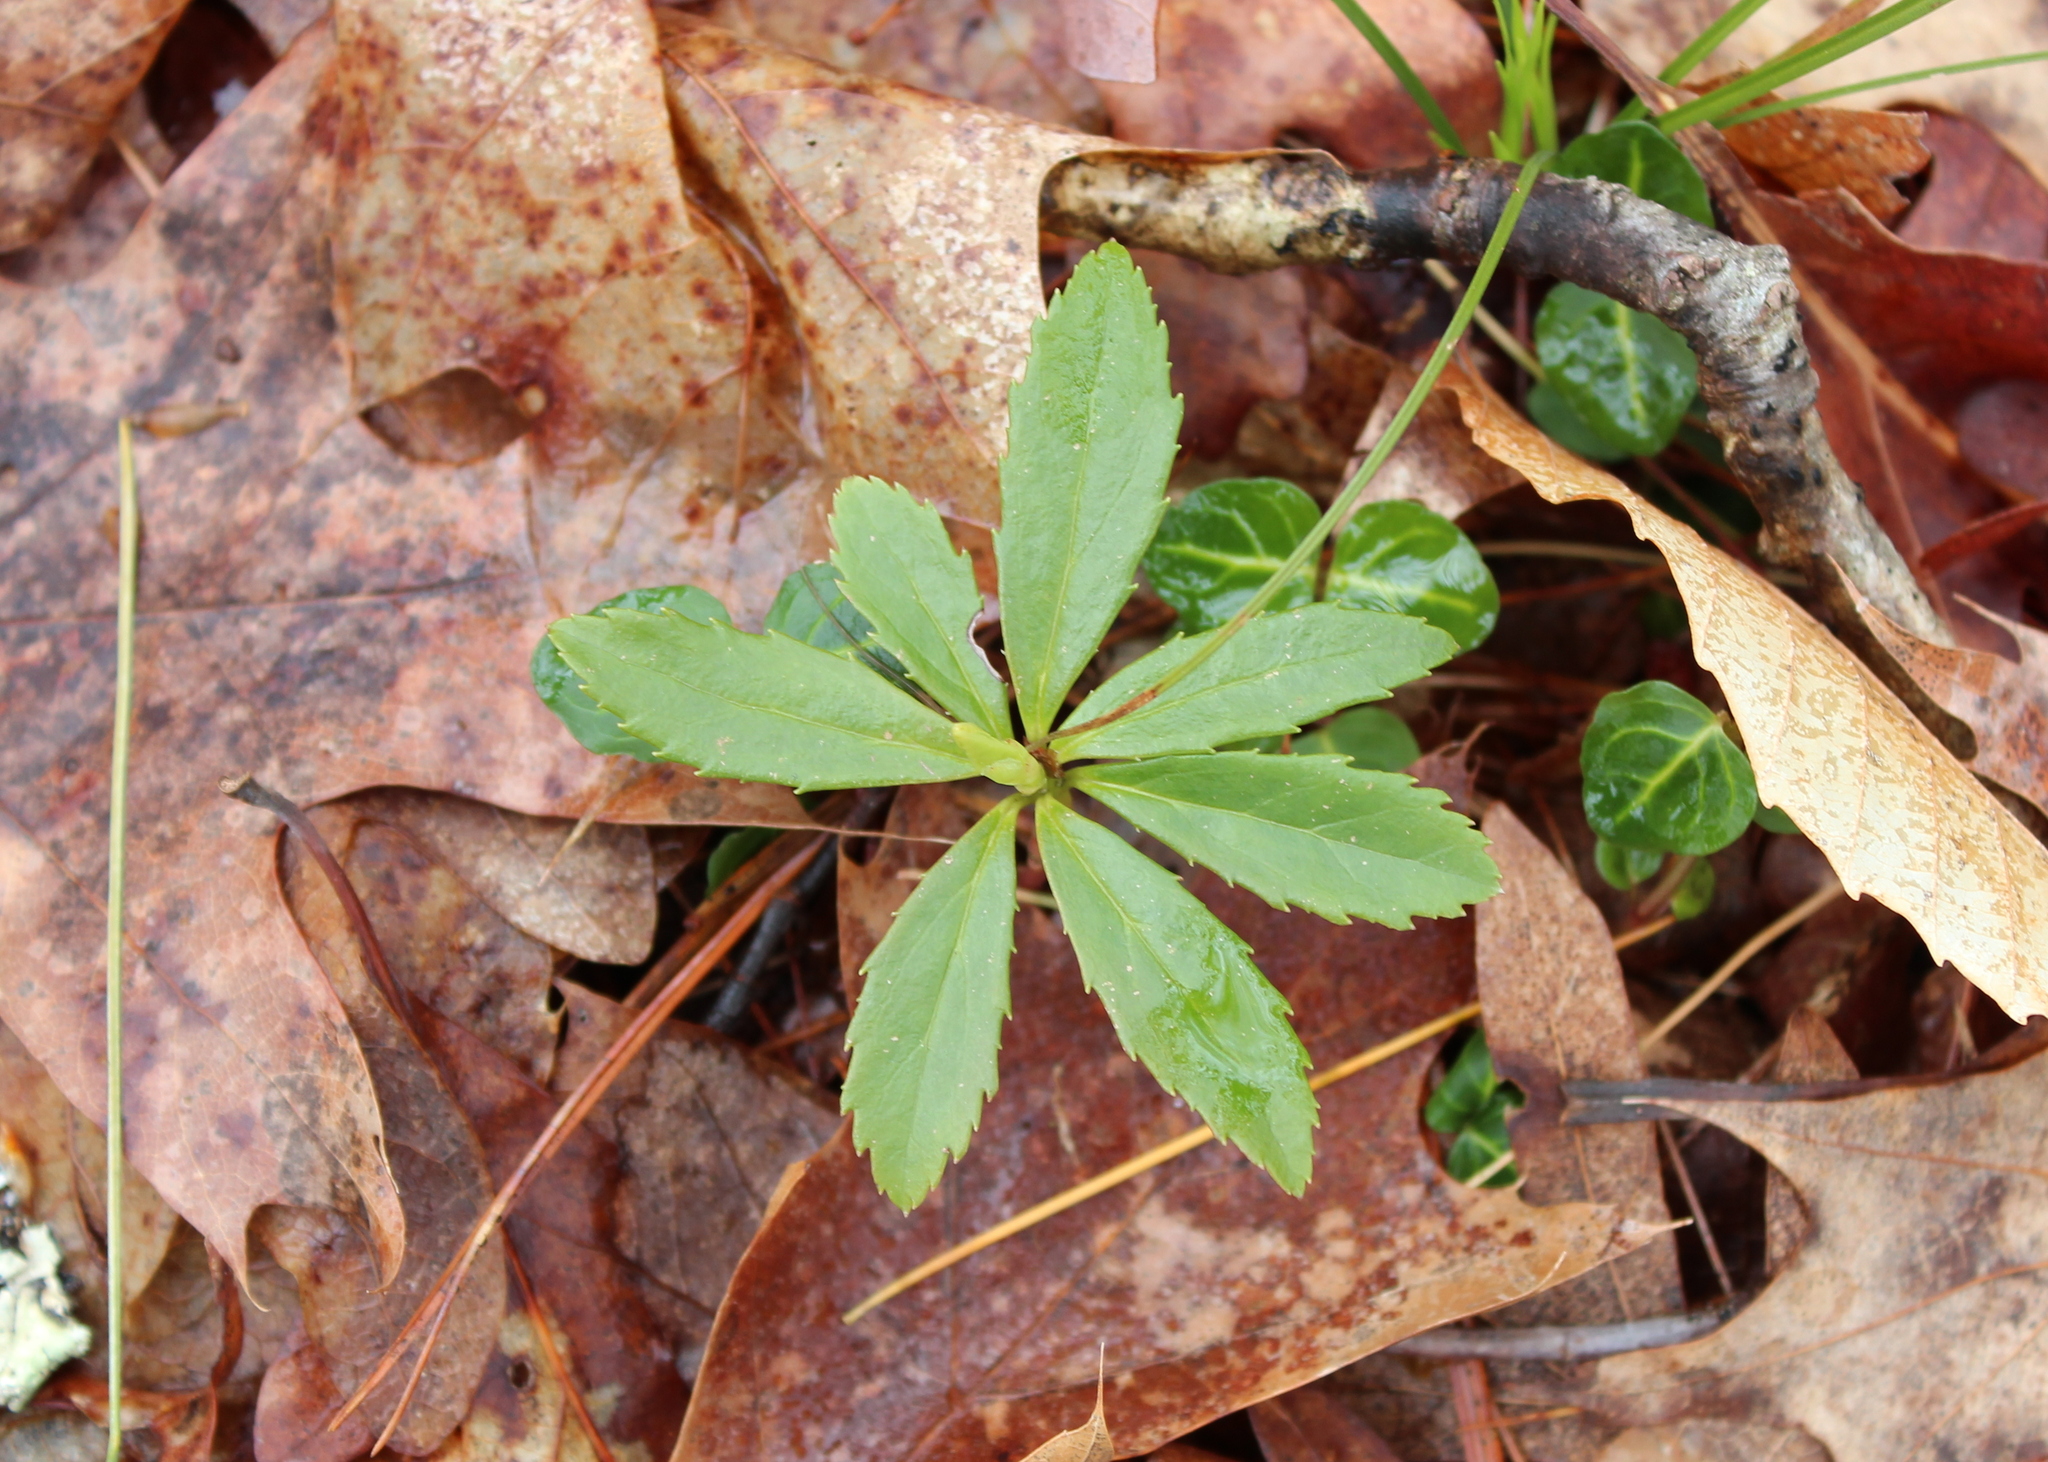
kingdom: Plantae
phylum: Tracheophyta
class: Magnoliopsida
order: Ericales
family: Ericaceae
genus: Chimaphila
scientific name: Chimaphila umbellata
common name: Pipsissewa
